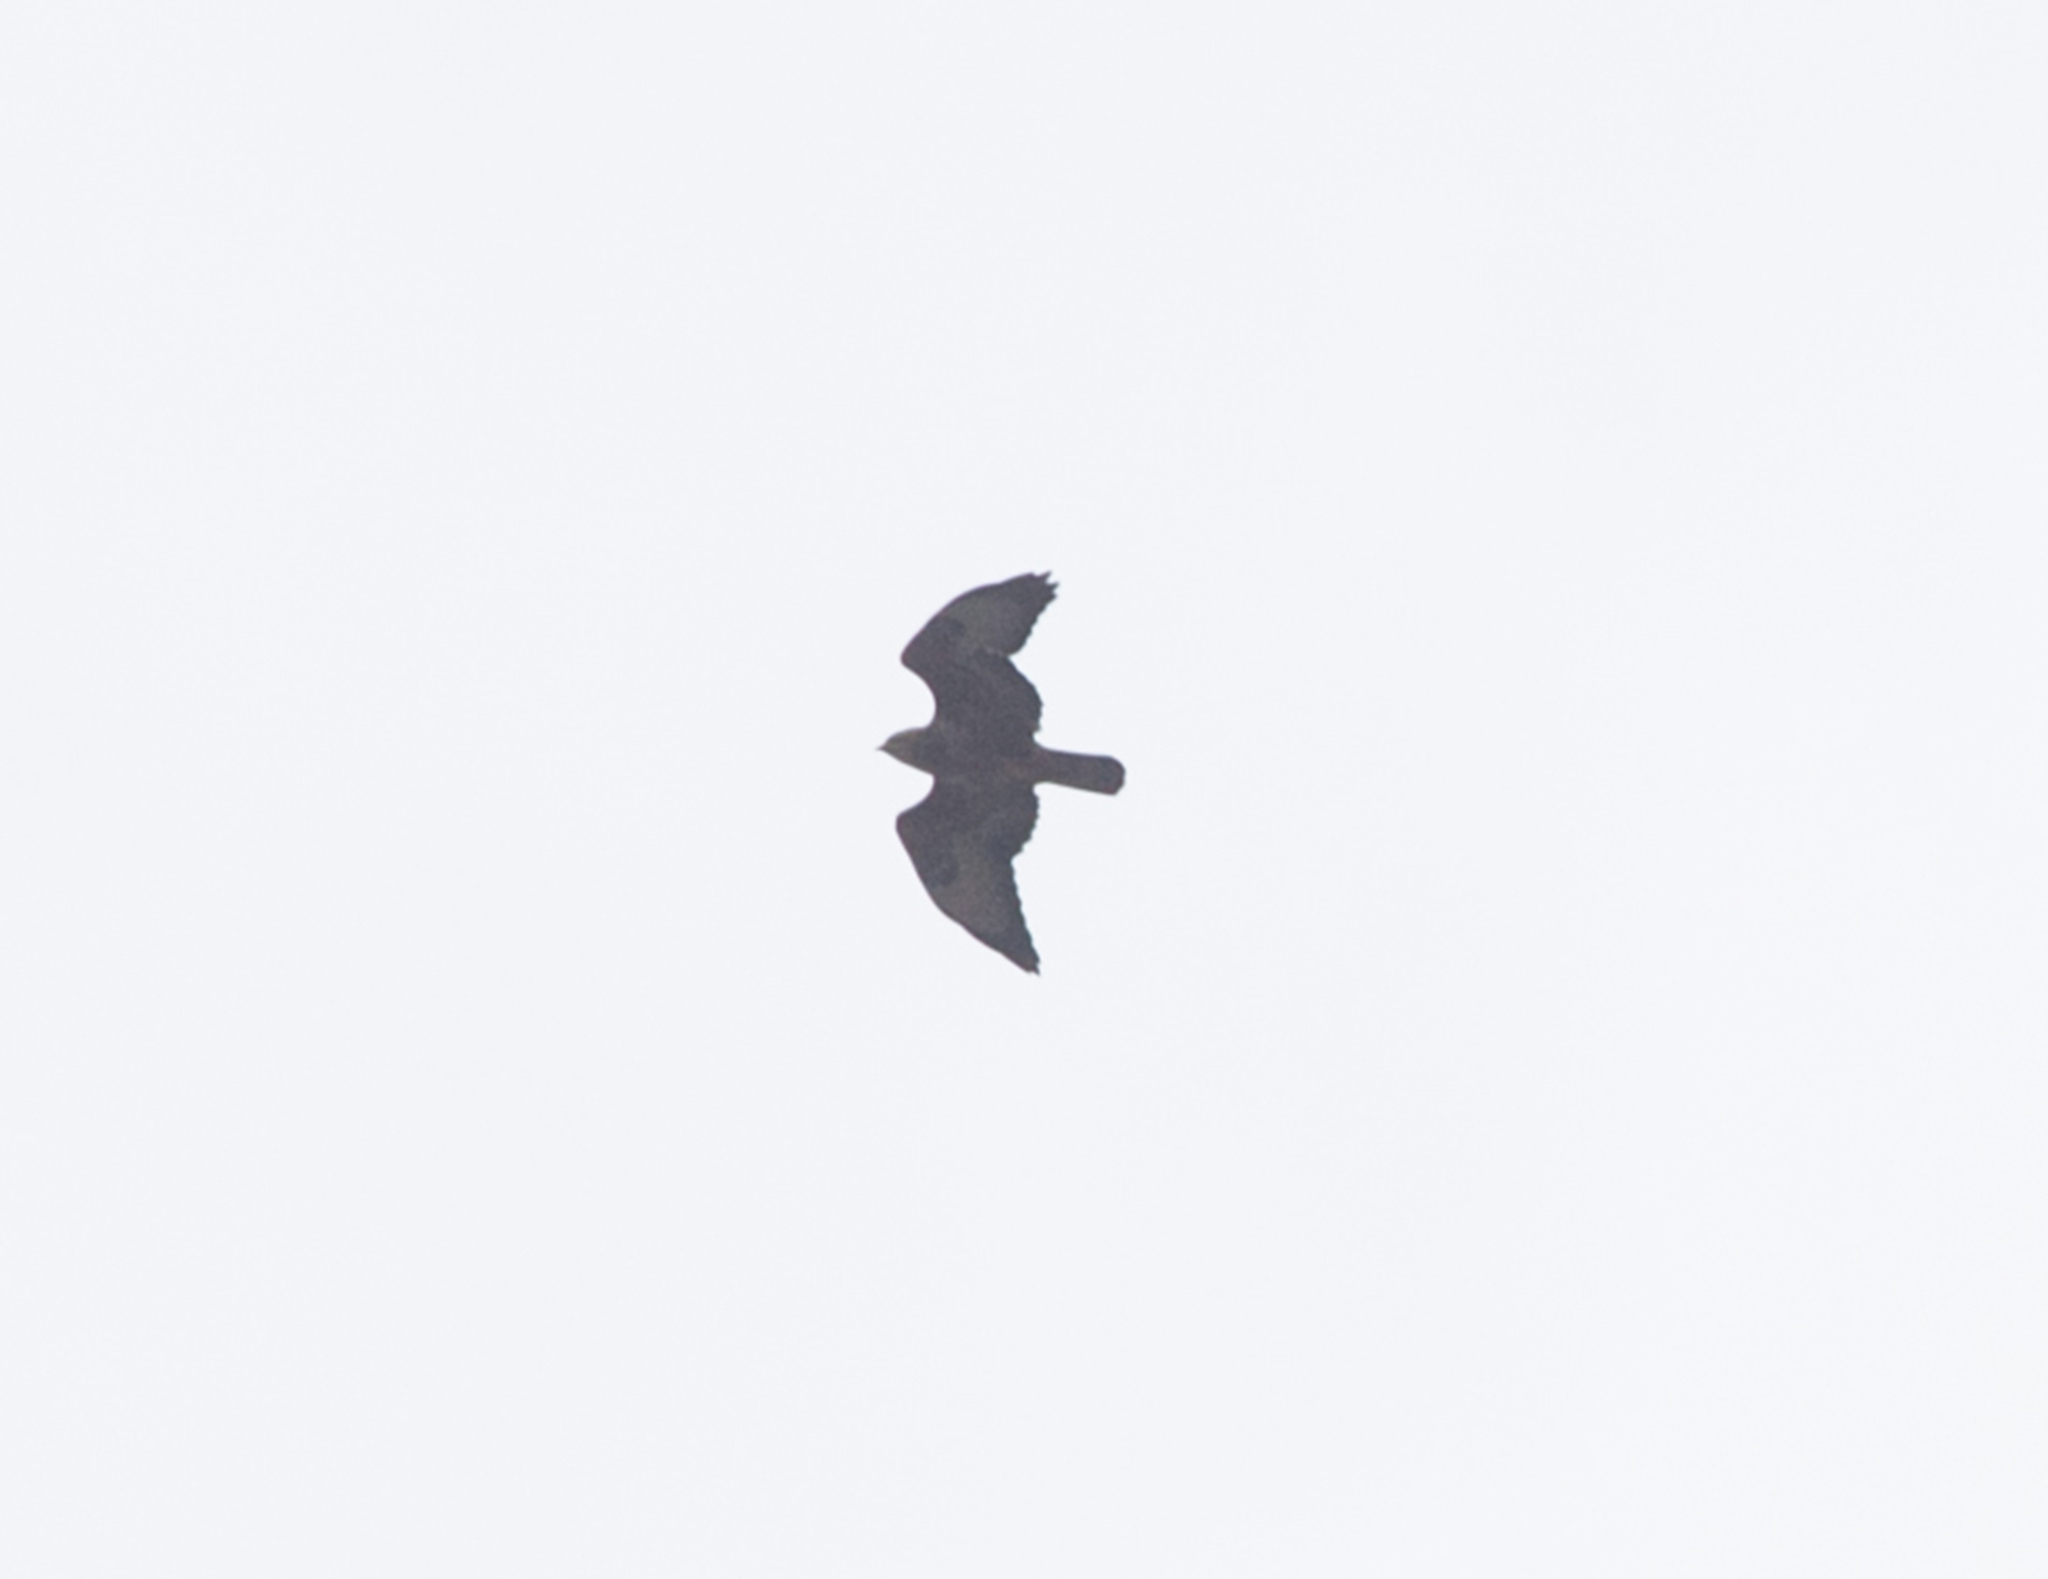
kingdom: Animalia
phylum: Chordata
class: Aves
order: Accipitriformes
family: Accipitridae
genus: Buteo
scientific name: Buteo buteo
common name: Common buzzard
